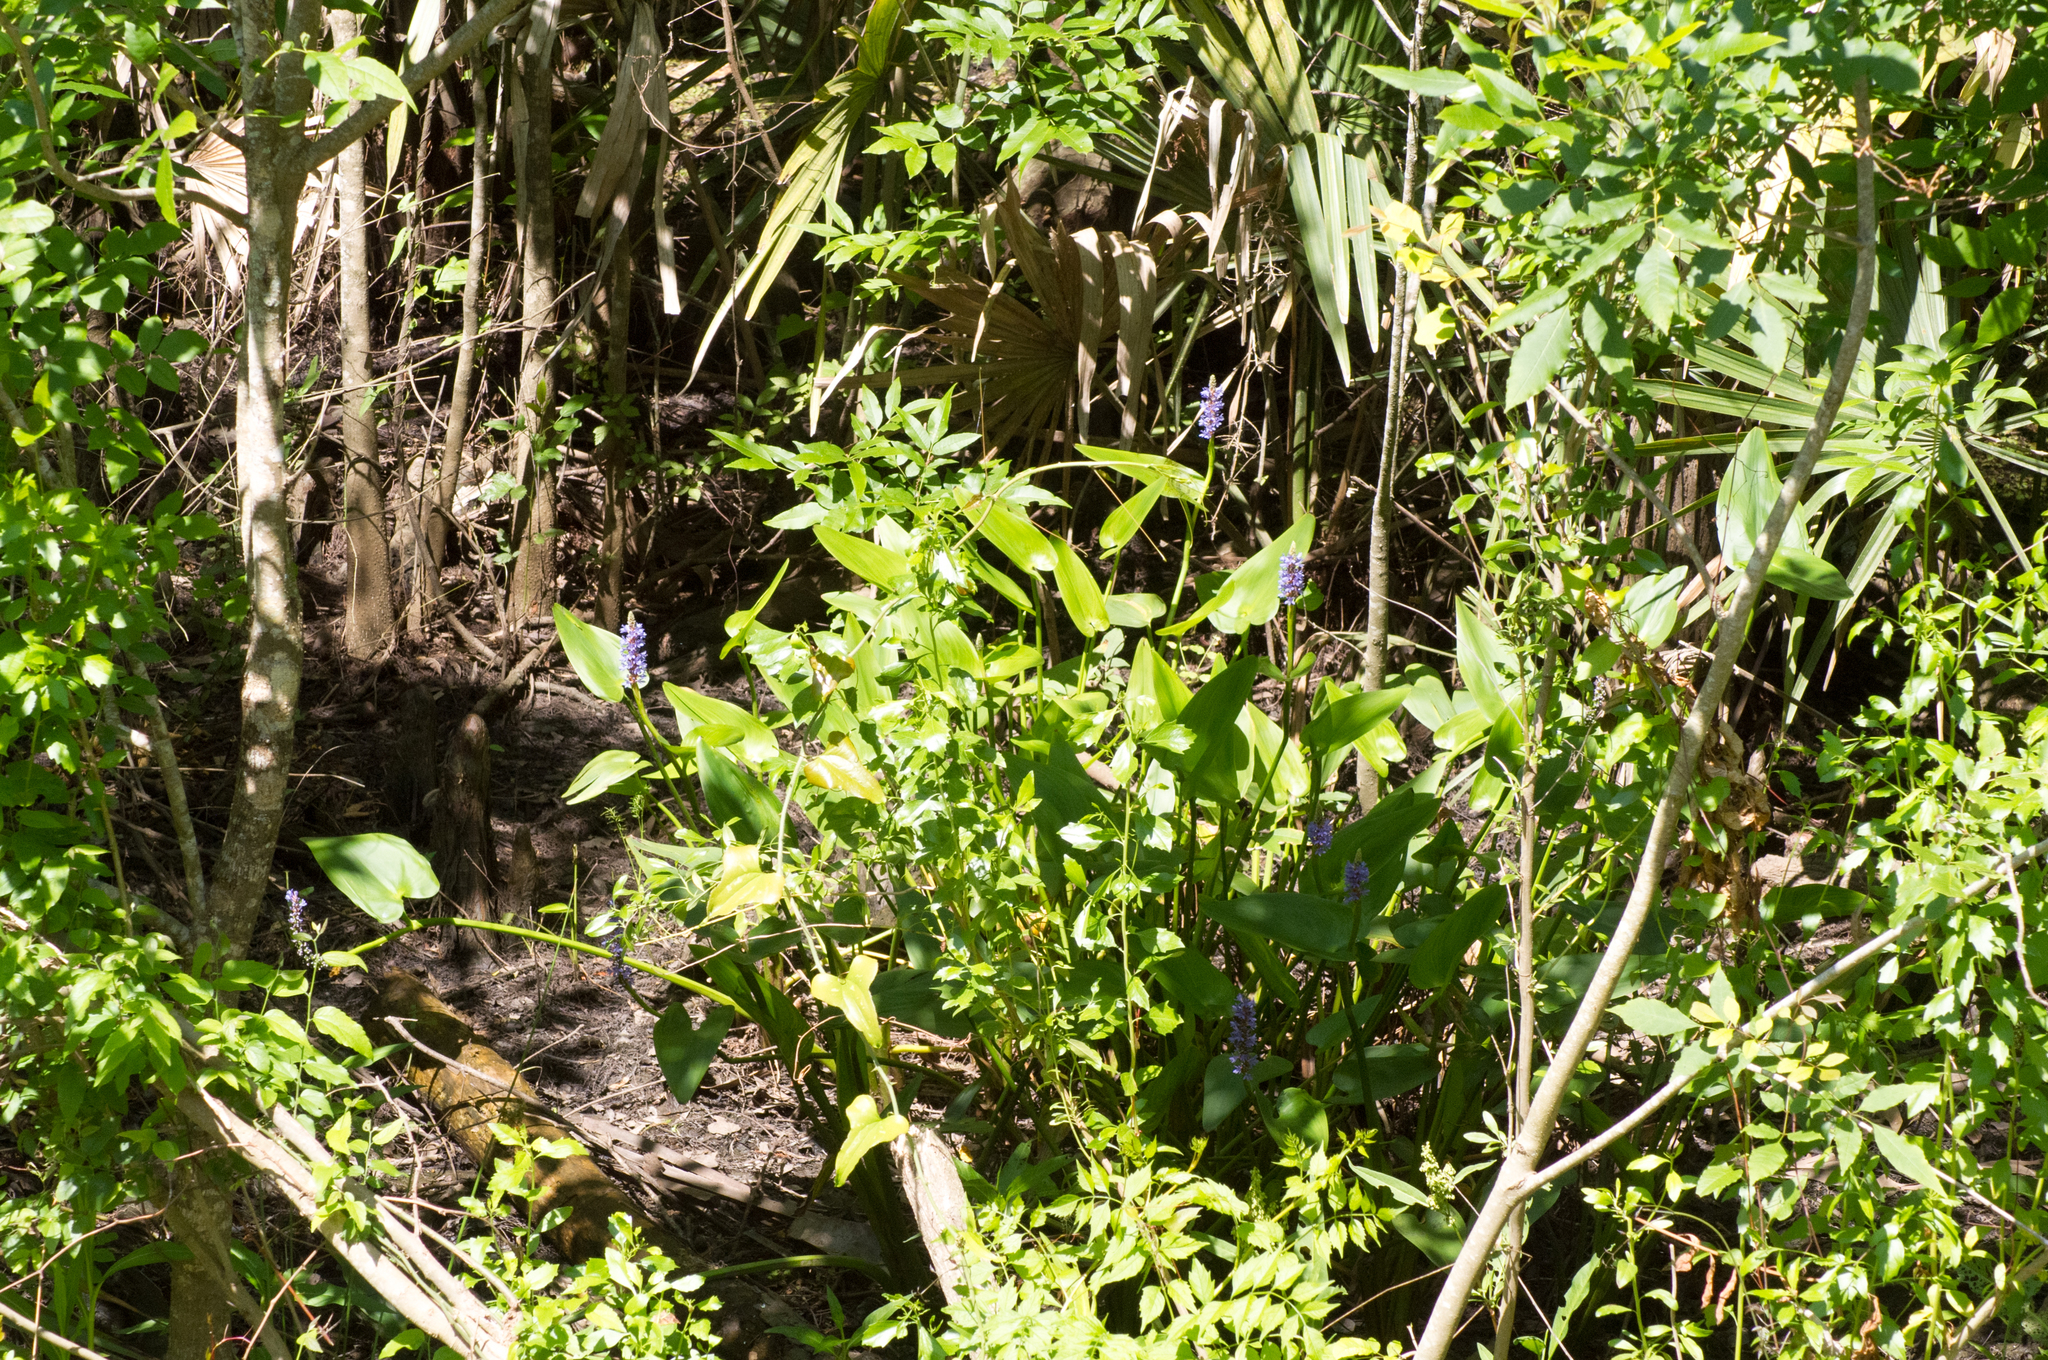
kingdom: Plantae
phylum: Tracheophyta
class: Liliopsida
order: Commelinales
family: Pontederiaceae
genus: Pontederia
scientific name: Pontederia cordata
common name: Pickerelweed
